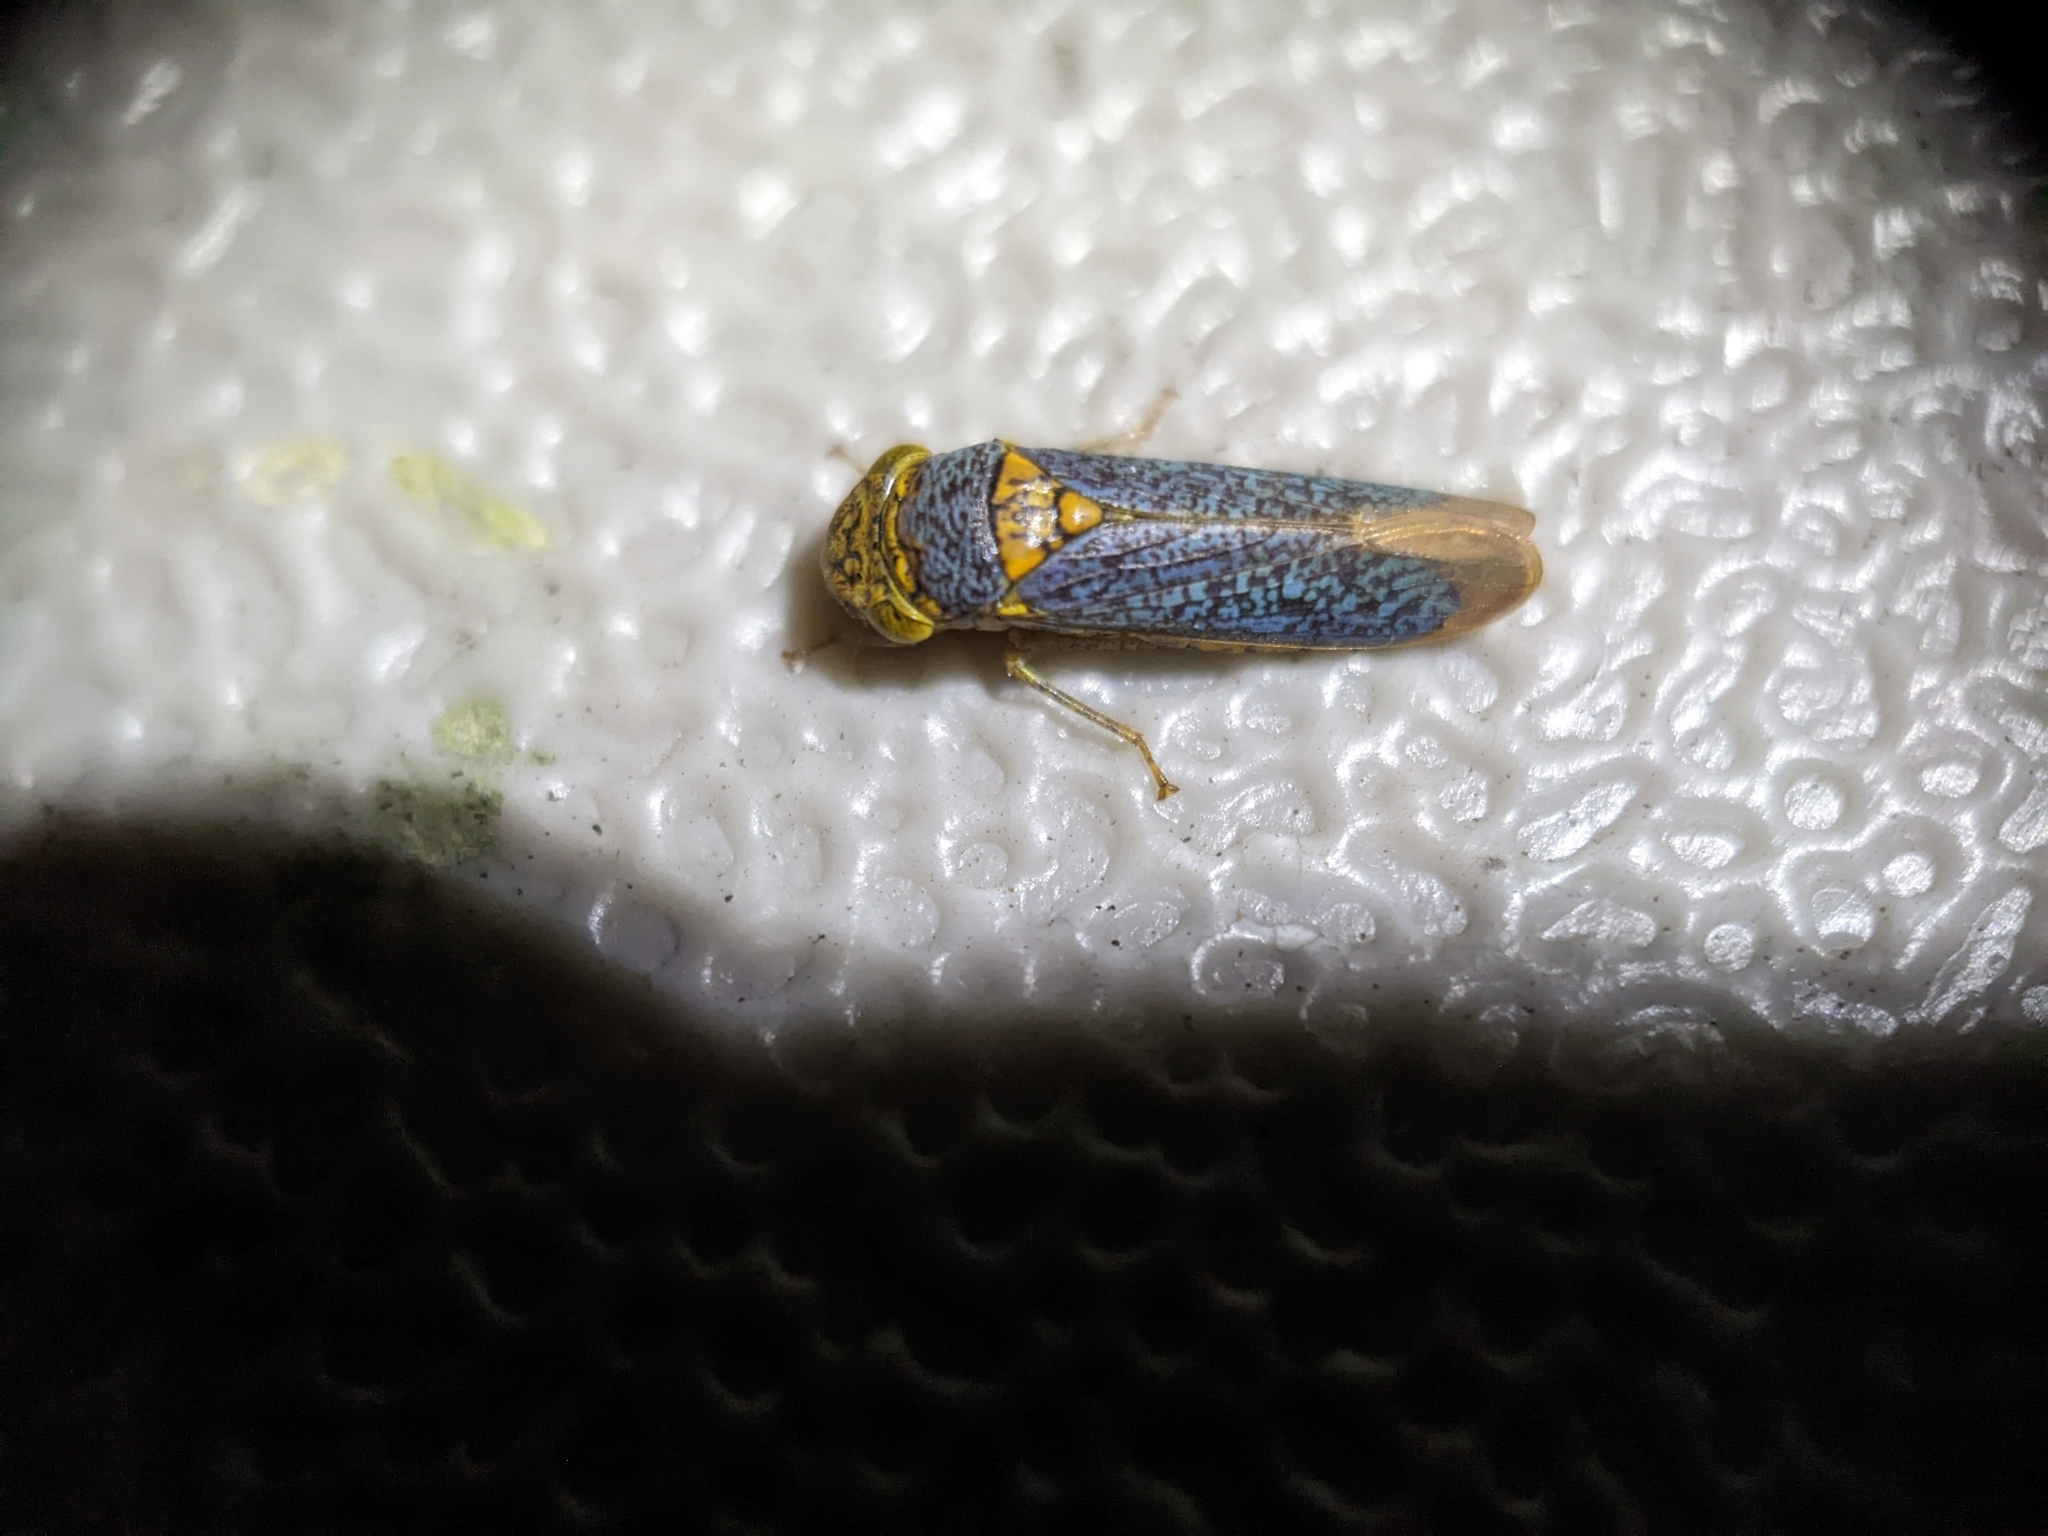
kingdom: Animalia
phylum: Arthropoda
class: Insecta
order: Hemiptera
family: Cicadellidae
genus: Oncometopia
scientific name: Oncometopia orbona
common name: Broad-headed sharpshooter
